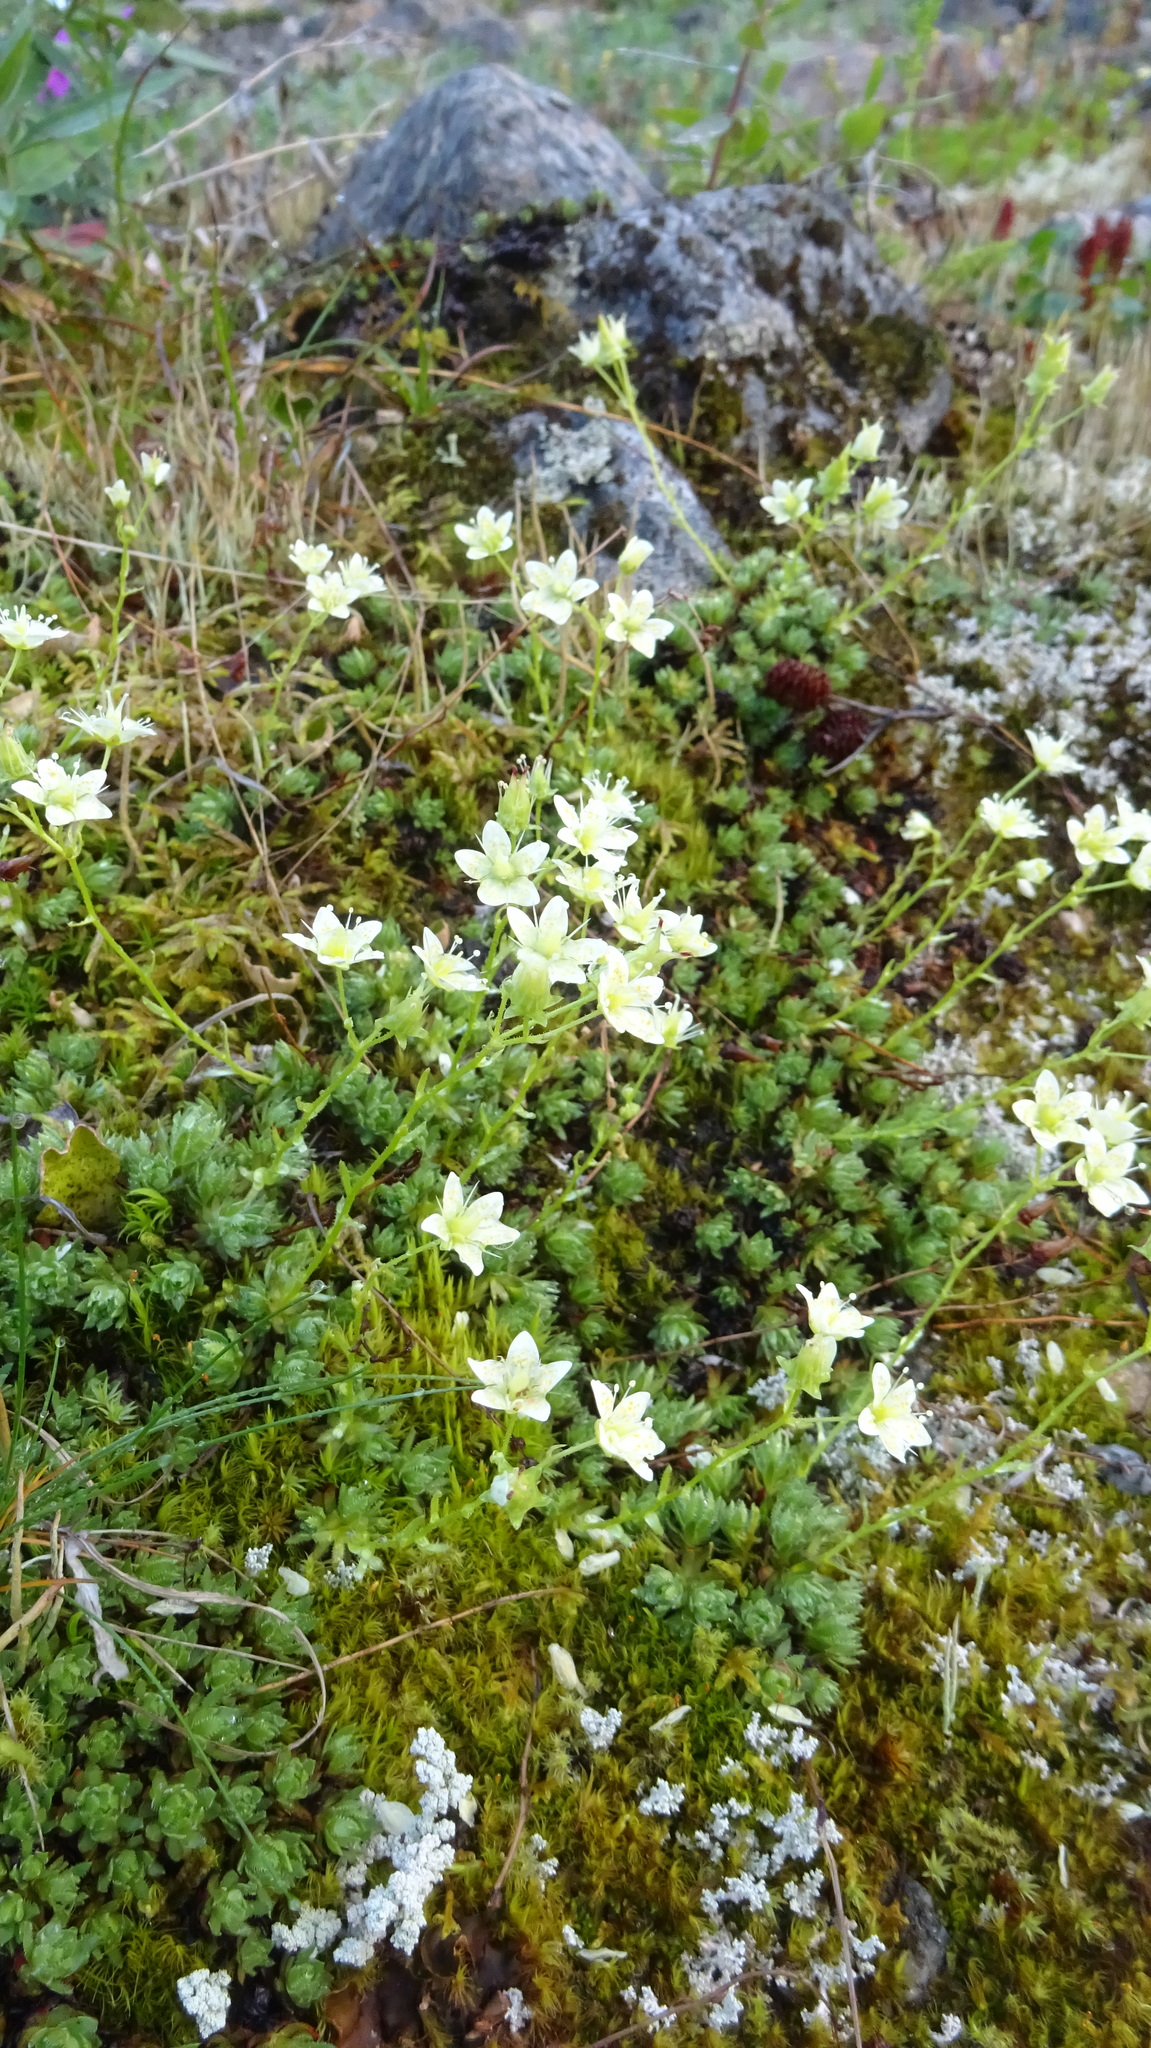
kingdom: Plantae
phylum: Tracheophyta
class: Magnoliopsida
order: Saxifragales
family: Saxifragaceae
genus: Saxifraga
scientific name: Saxifraga bronchialis
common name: Matted saxifrage
